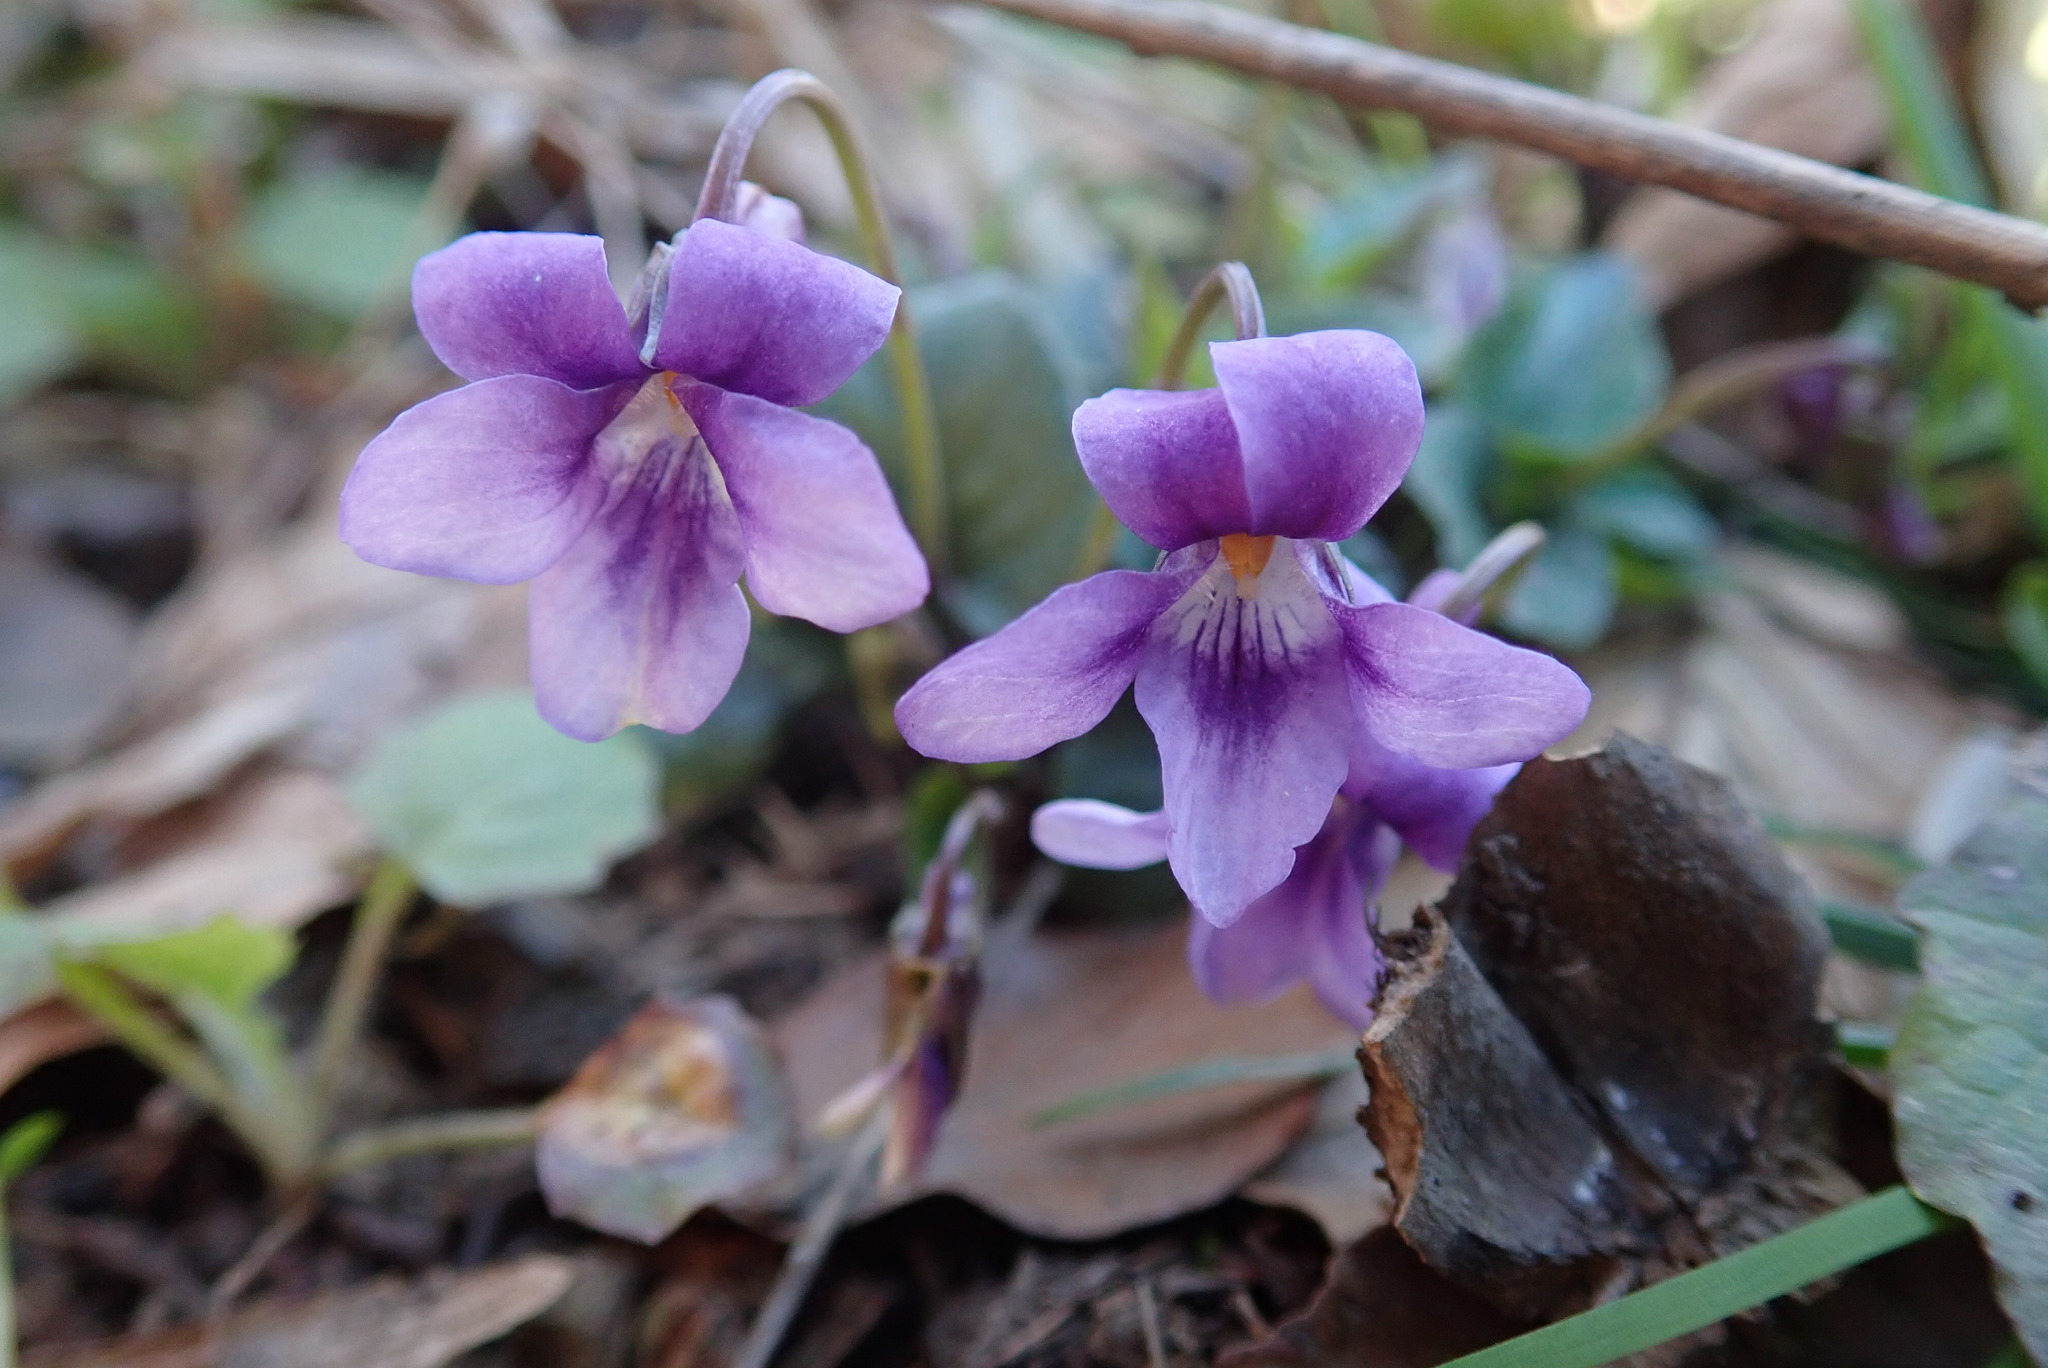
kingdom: Plantae
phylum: Tracheophyta
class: Magnoliopsida
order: Malpighiales
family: Violaceae
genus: Viola
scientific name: Viola reichenbachiana
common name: Early dog-violet
